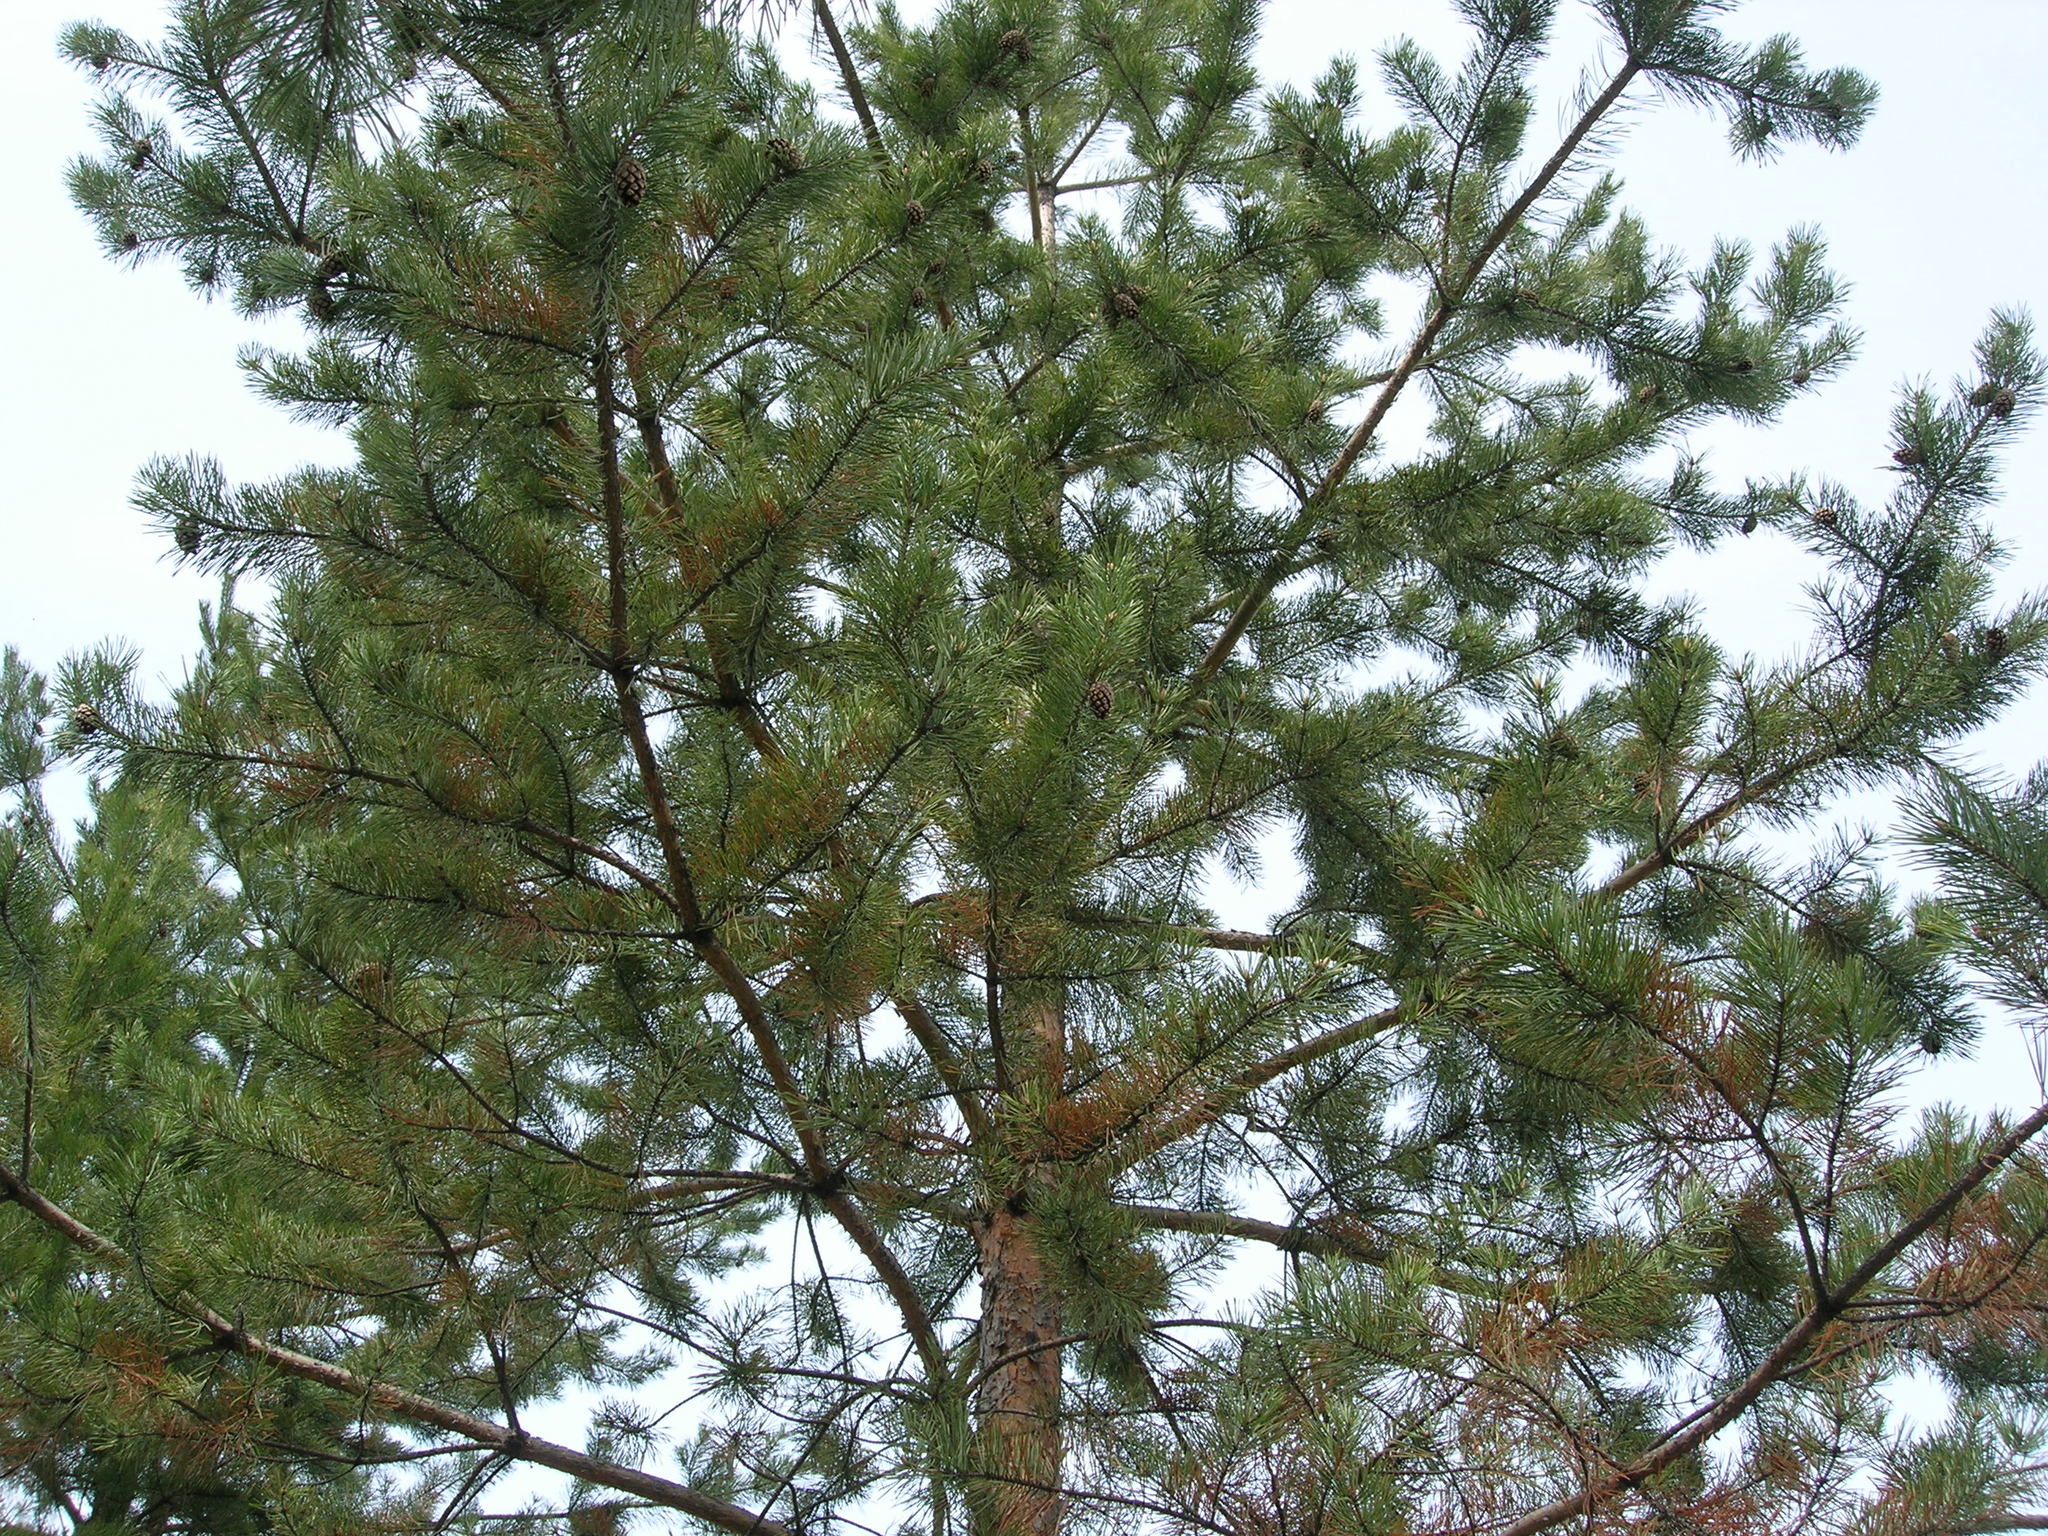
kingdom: Plantae
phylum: Tracheophyta
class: Pinopsida
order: Pinales
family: Pinaceae
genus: Pinus
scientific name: Pinus sylvestris
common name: Scots pine
